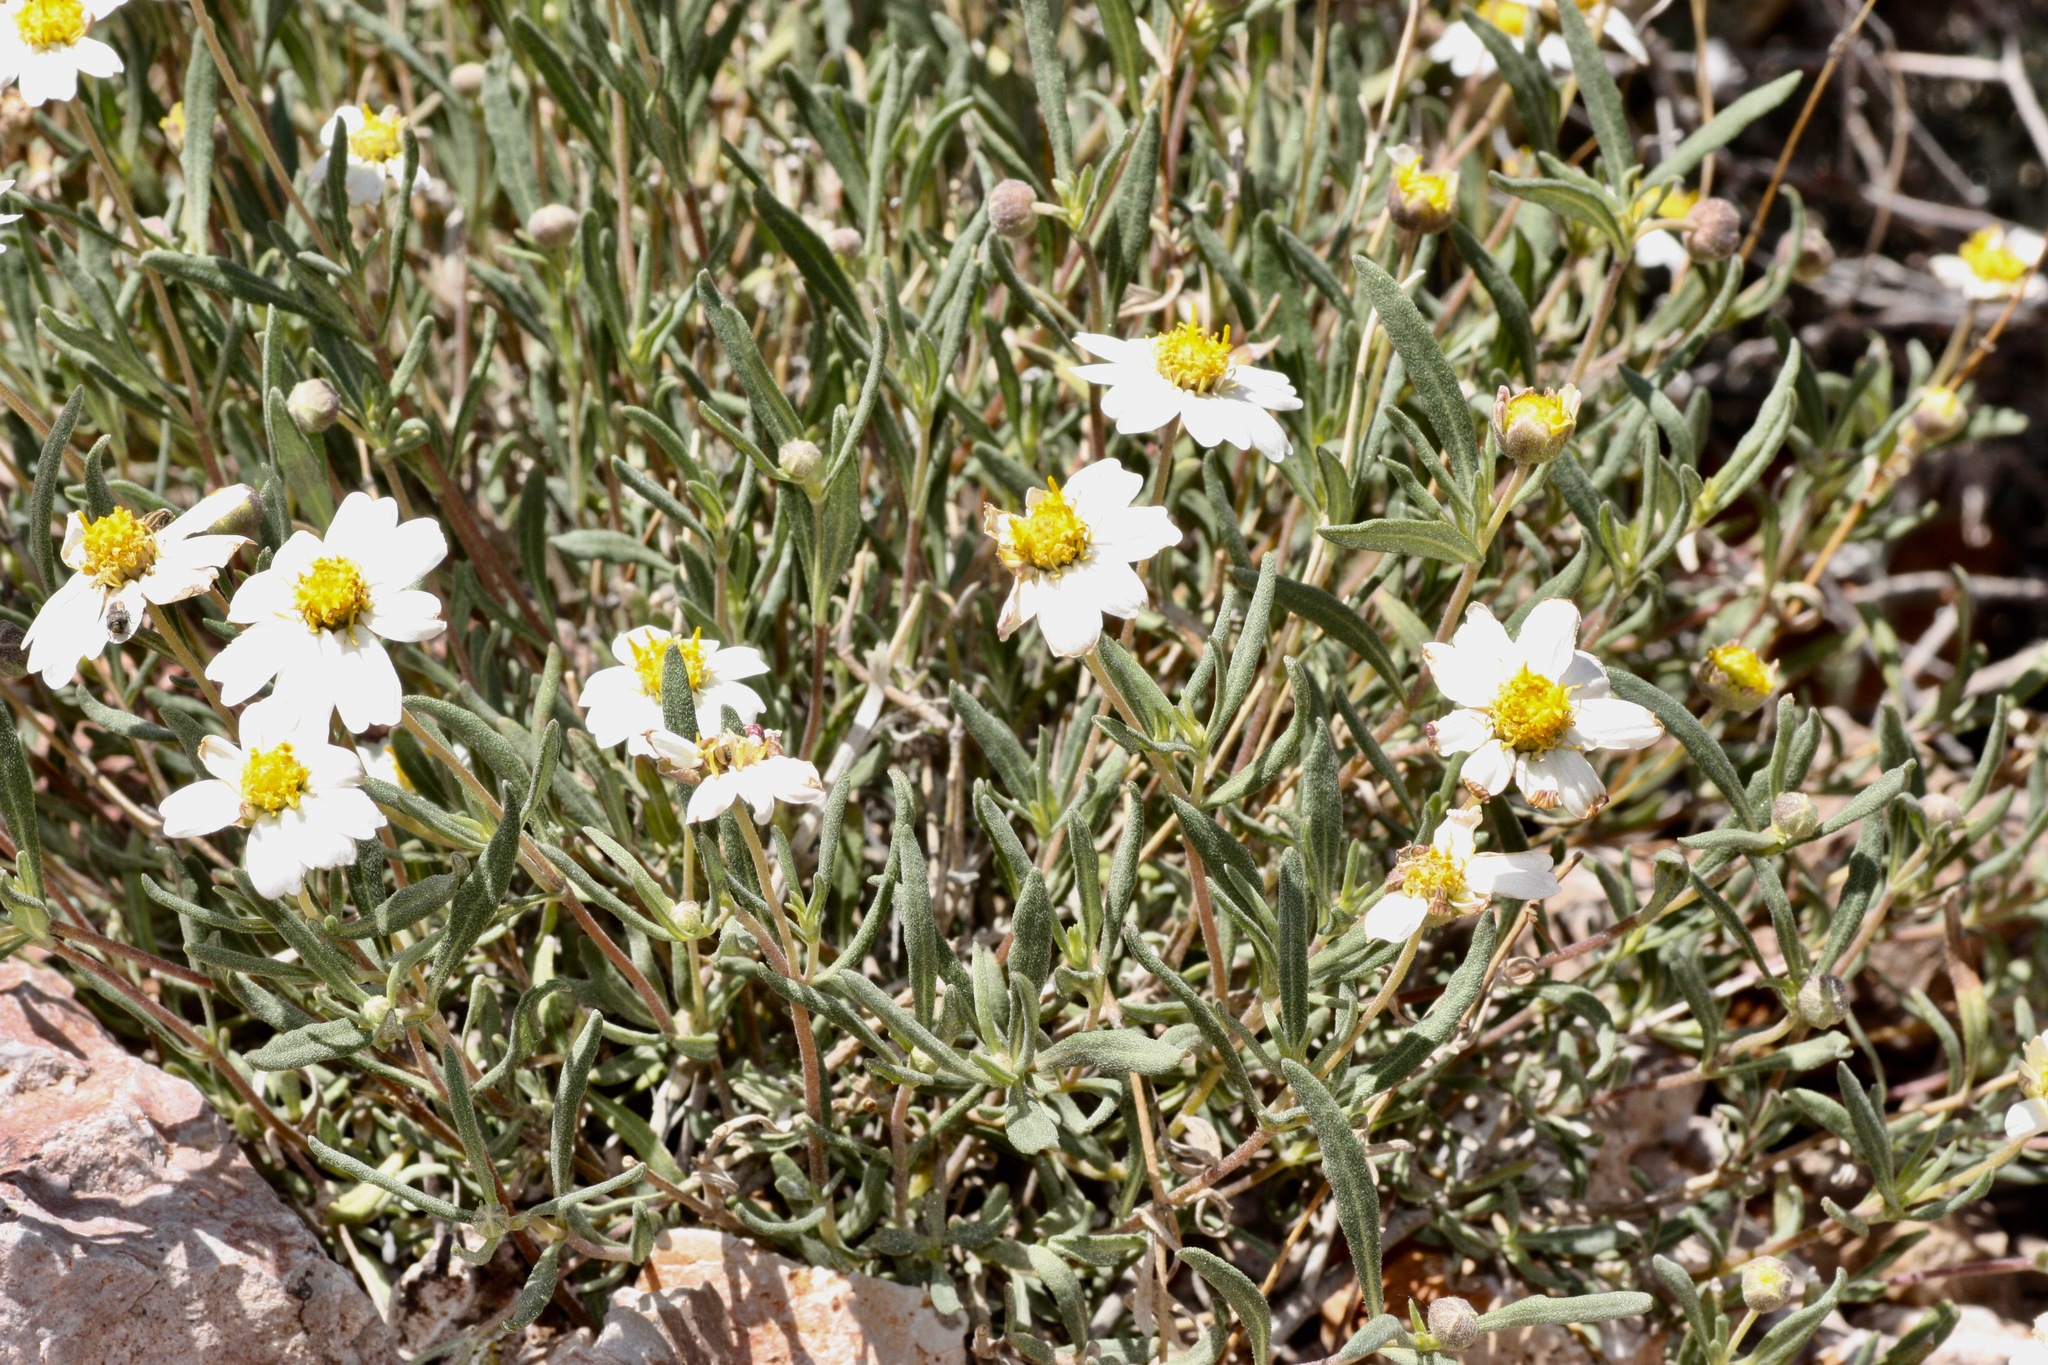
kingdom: Plantae
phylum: Tracheophyta
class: Magnoliopsida
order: Asterales
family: Asteraceae
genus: Melampodium
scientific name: Melampodium leucanthum
